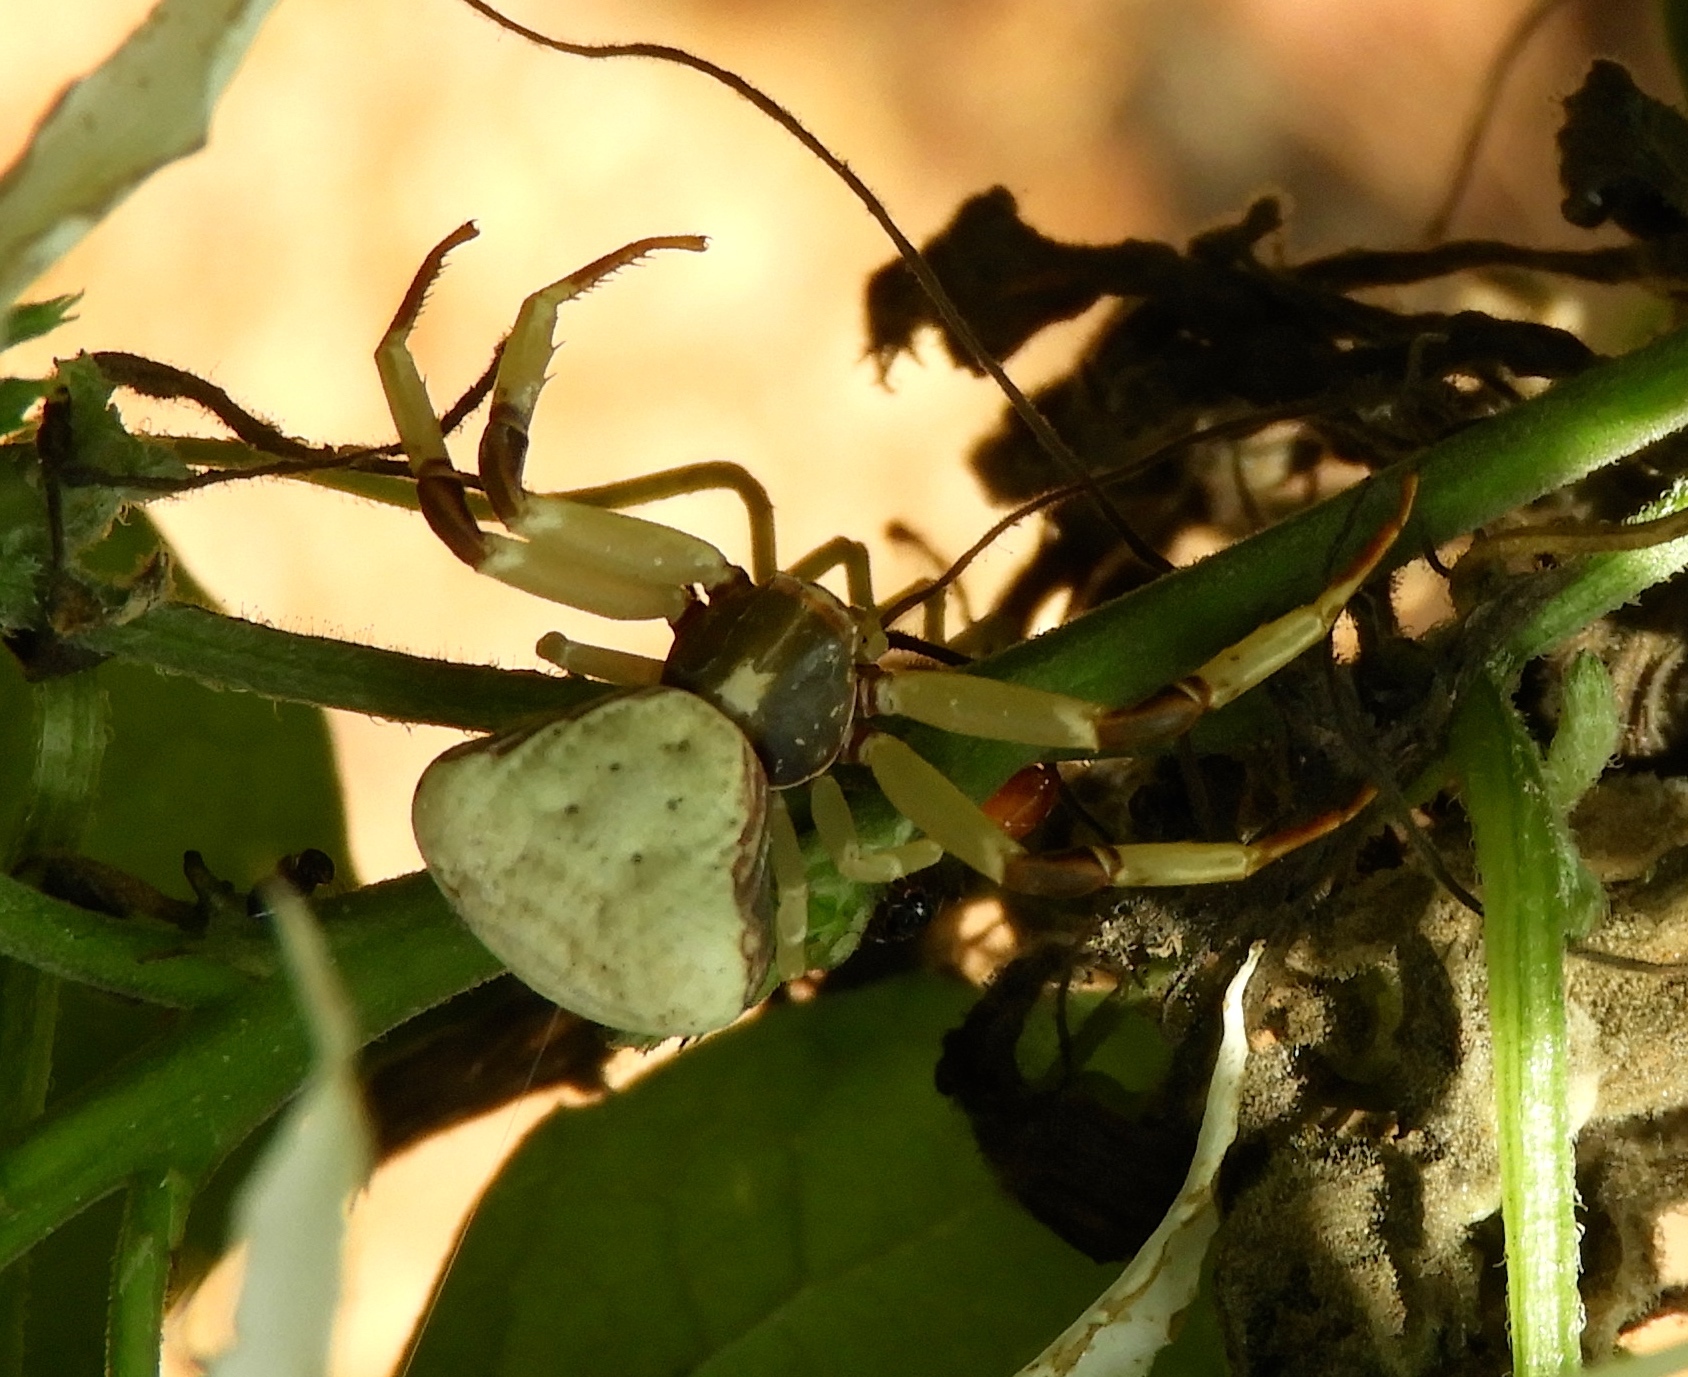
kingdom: Animalia
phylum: Arthropoda
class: Arachnida
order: Araneae
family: Thomisidae
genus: Misumenoides
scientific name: Misumenoides
